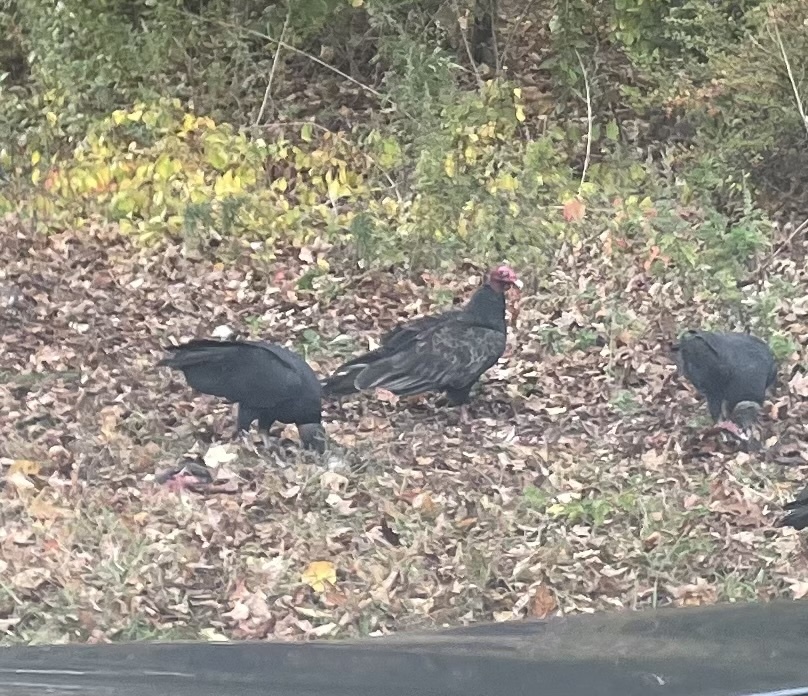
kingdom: Animalia
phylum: Chordata
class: Aves
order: Accipitriformes
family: Cathartidae
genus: Cathartes
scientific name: Cathartes aura
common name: Turkey vulture
